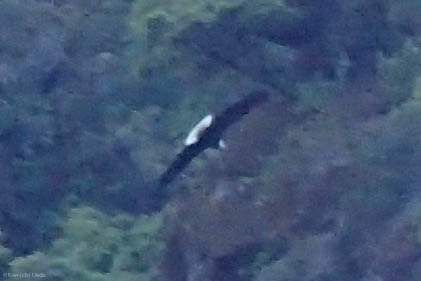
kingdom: Animalia
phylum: Chordata
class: Aves
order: Accipitriformes
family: Accipitridae
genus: Haliaeetus
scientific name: Haliaeetus leucocephalus
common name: Bald eagle
